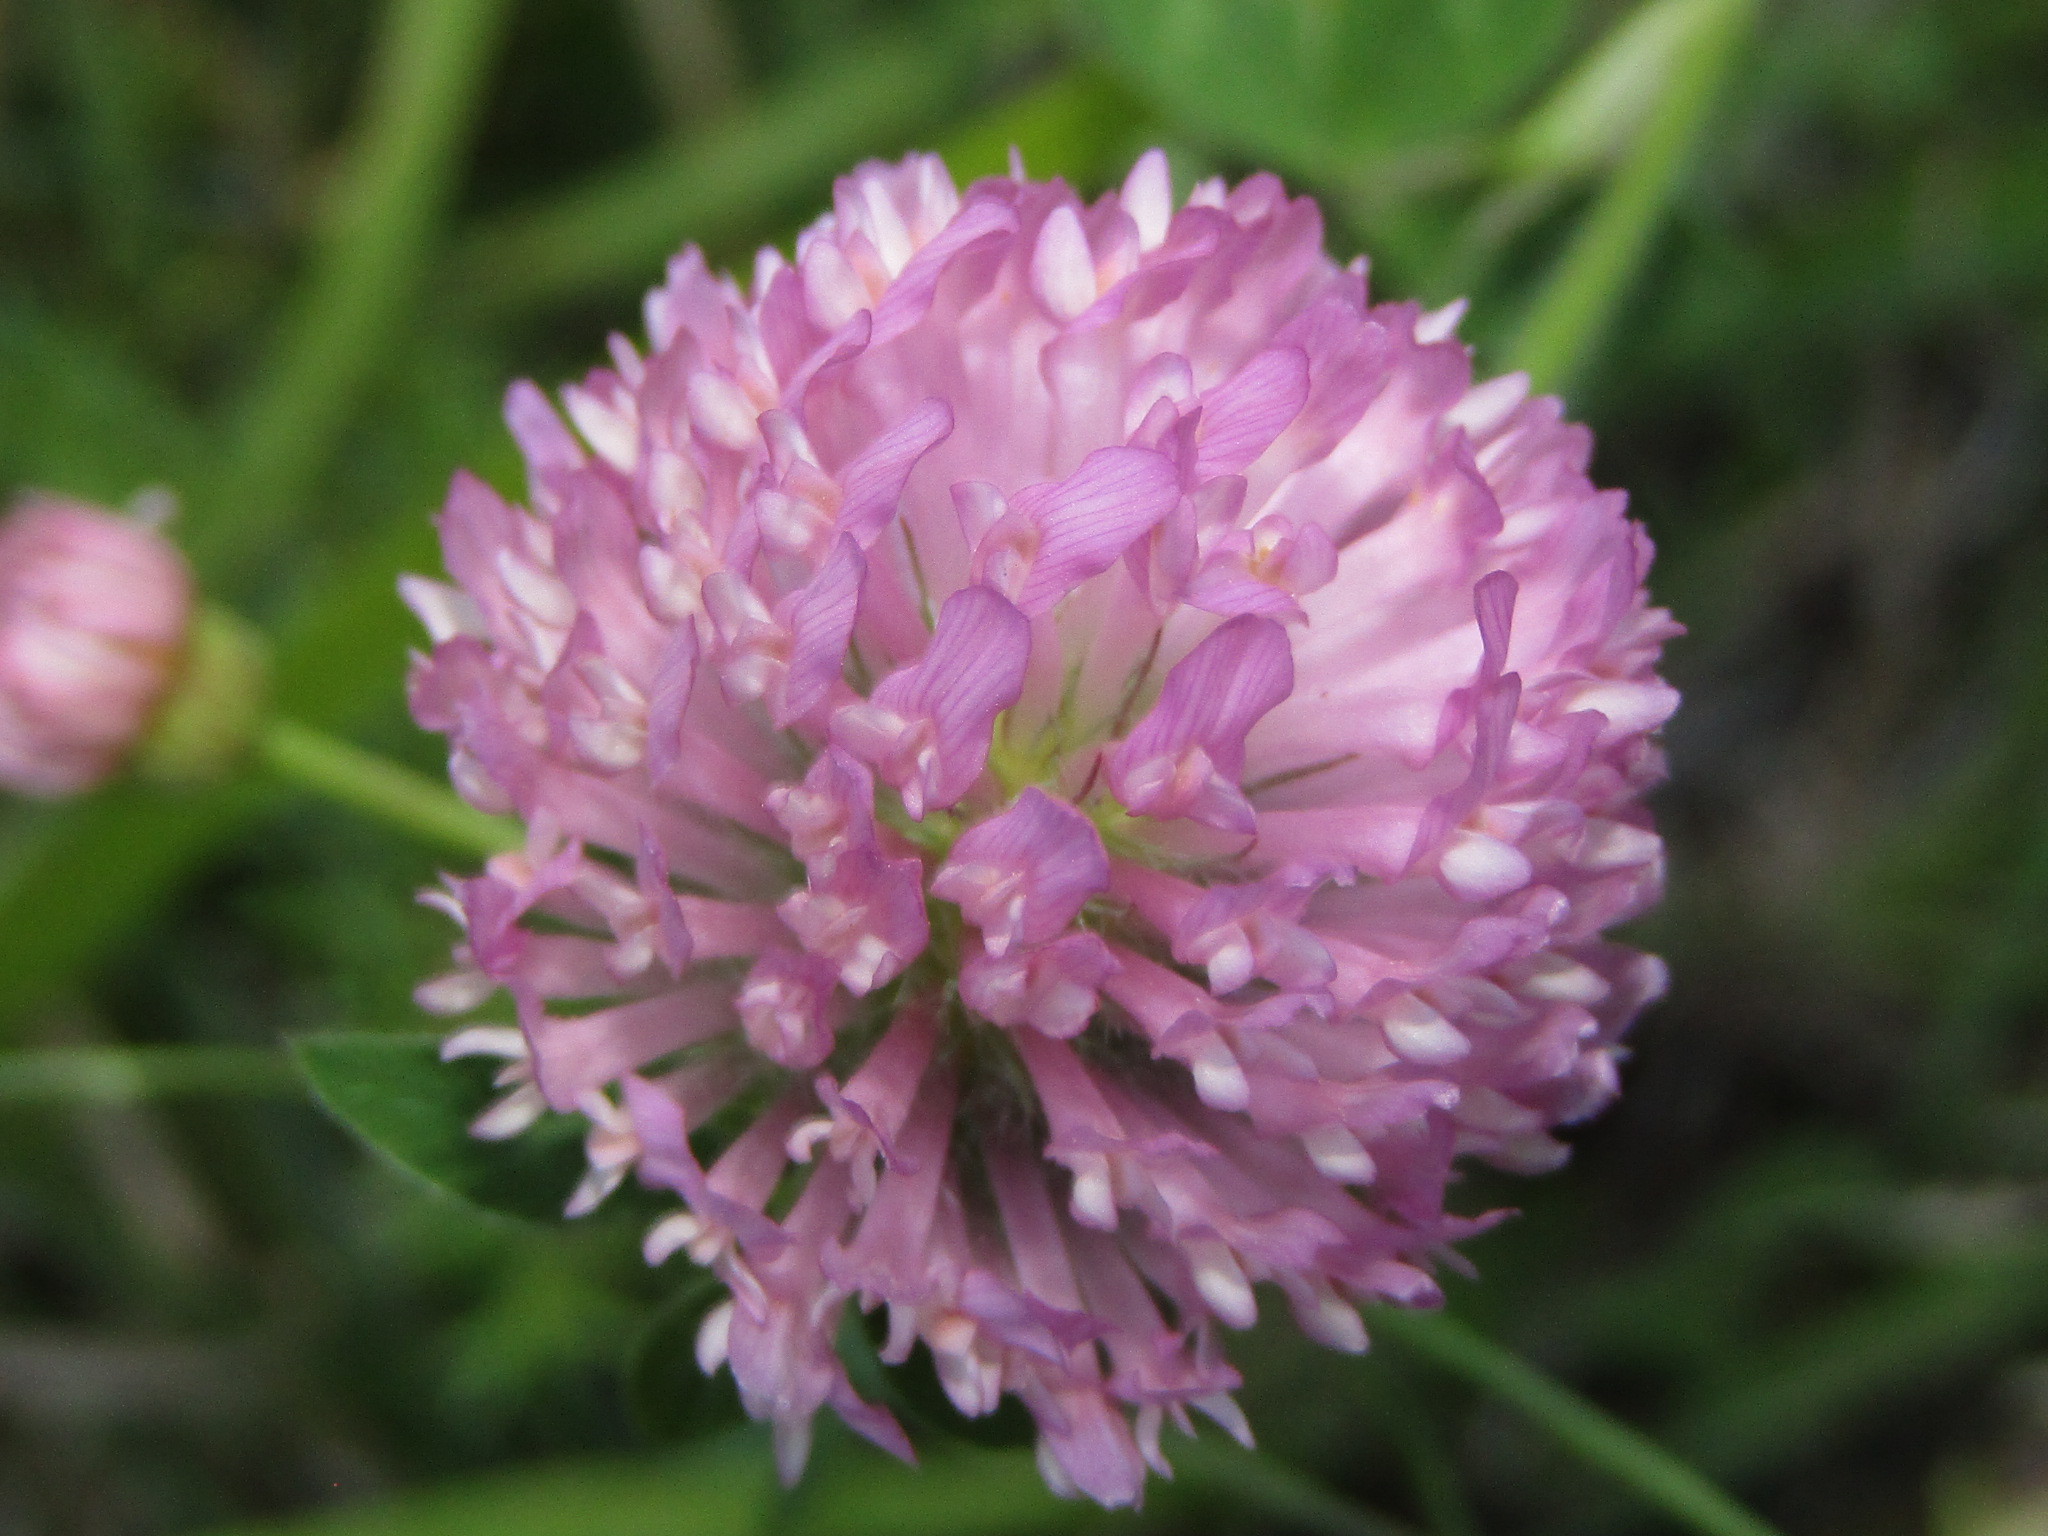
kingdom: Plantae
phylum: Tracheophyta
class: Magnoliopsida
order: Fabales
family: Fabaceae
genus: Trifolium
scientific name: Trifolium pratense
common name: Red clover
